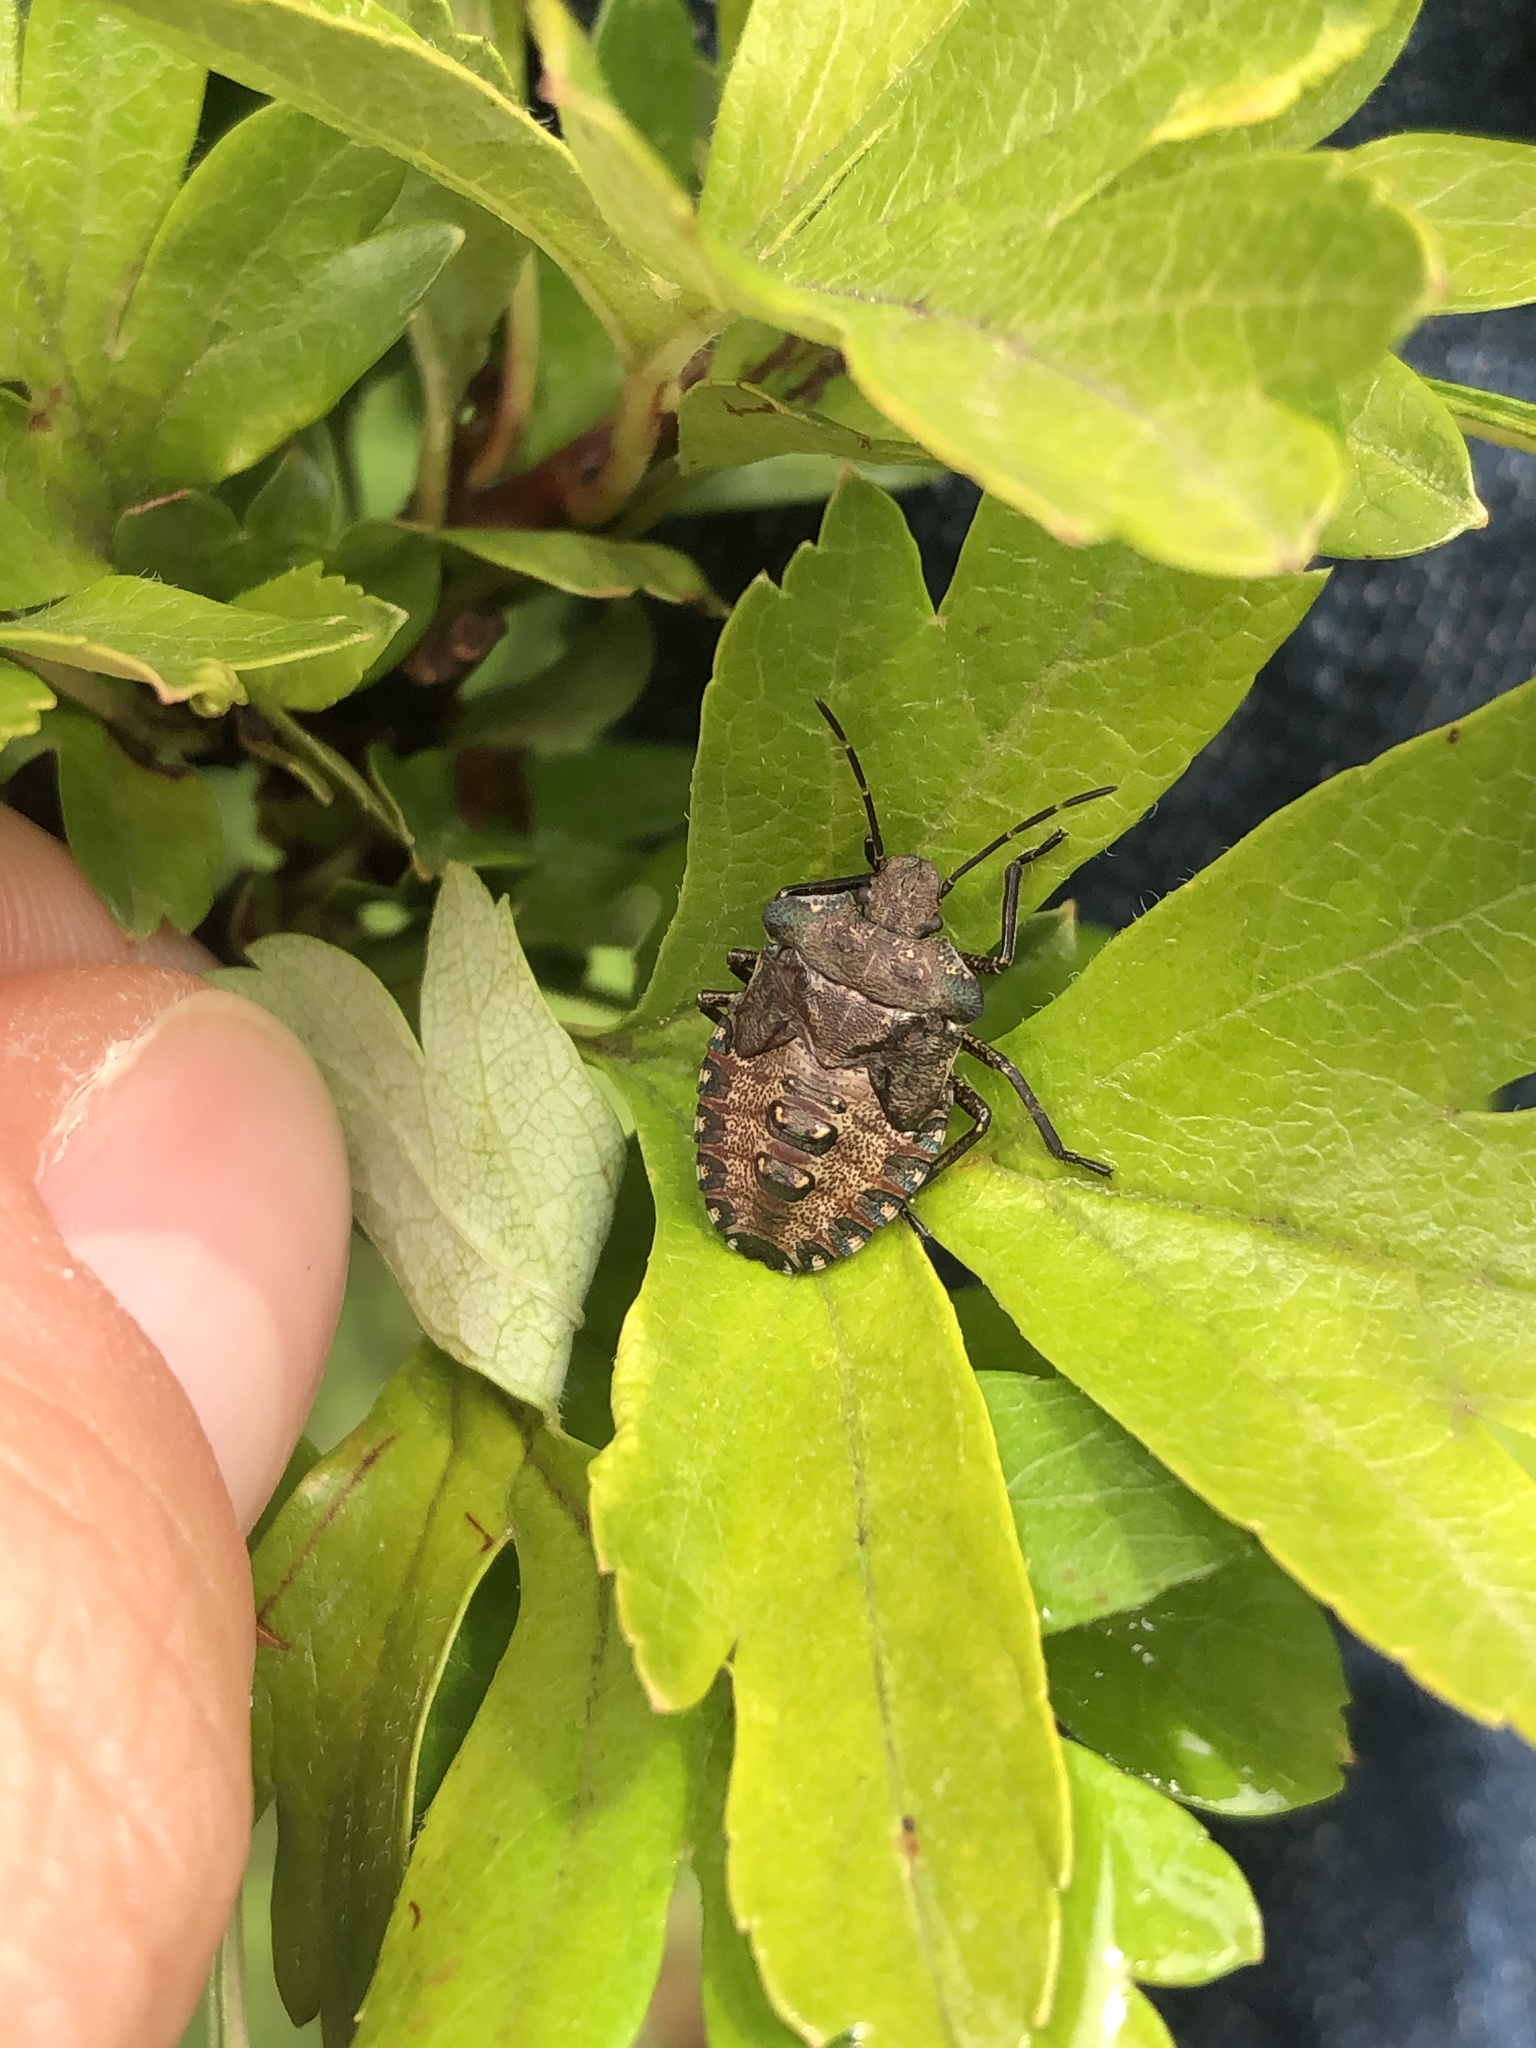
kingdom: Animalia
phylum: Arthropoda
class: Insecta
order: Hemiptera
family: Pentatomidae
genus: Pentatoma
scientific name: Pentatoma rufipes
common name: Forest bug
